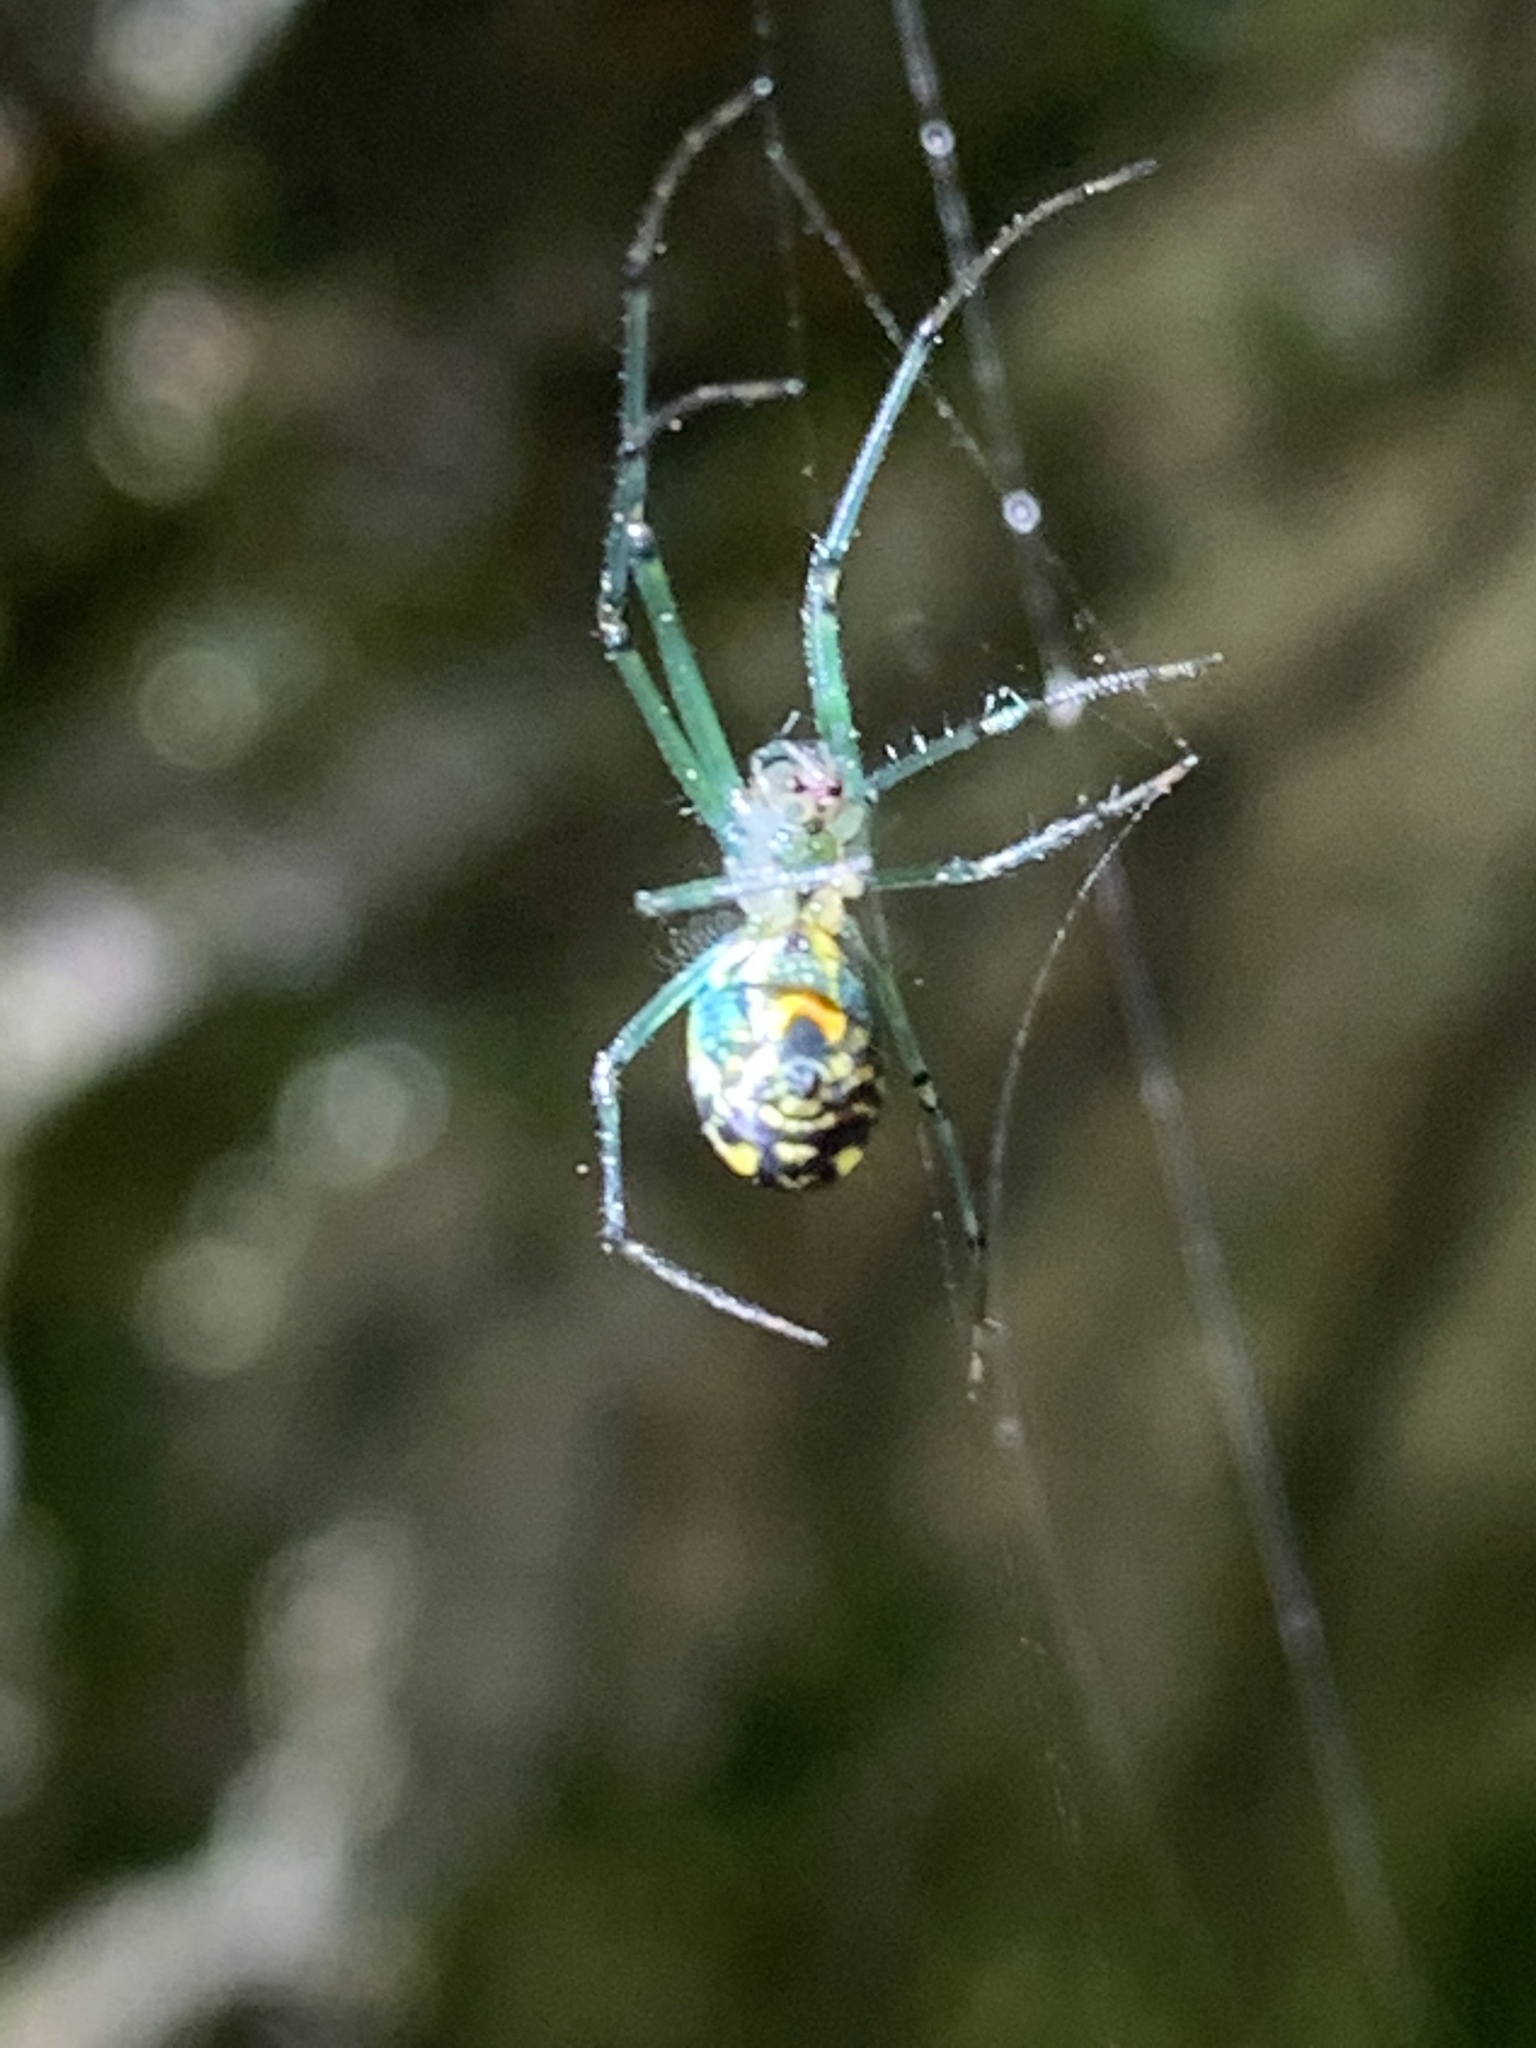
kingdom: Animalia
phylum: Arthropoda
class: Arachnida
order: Araneae
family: Tetragnathidae
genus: Leucauge
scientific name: Leucauge venusta
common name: Longjawed orb weavers
